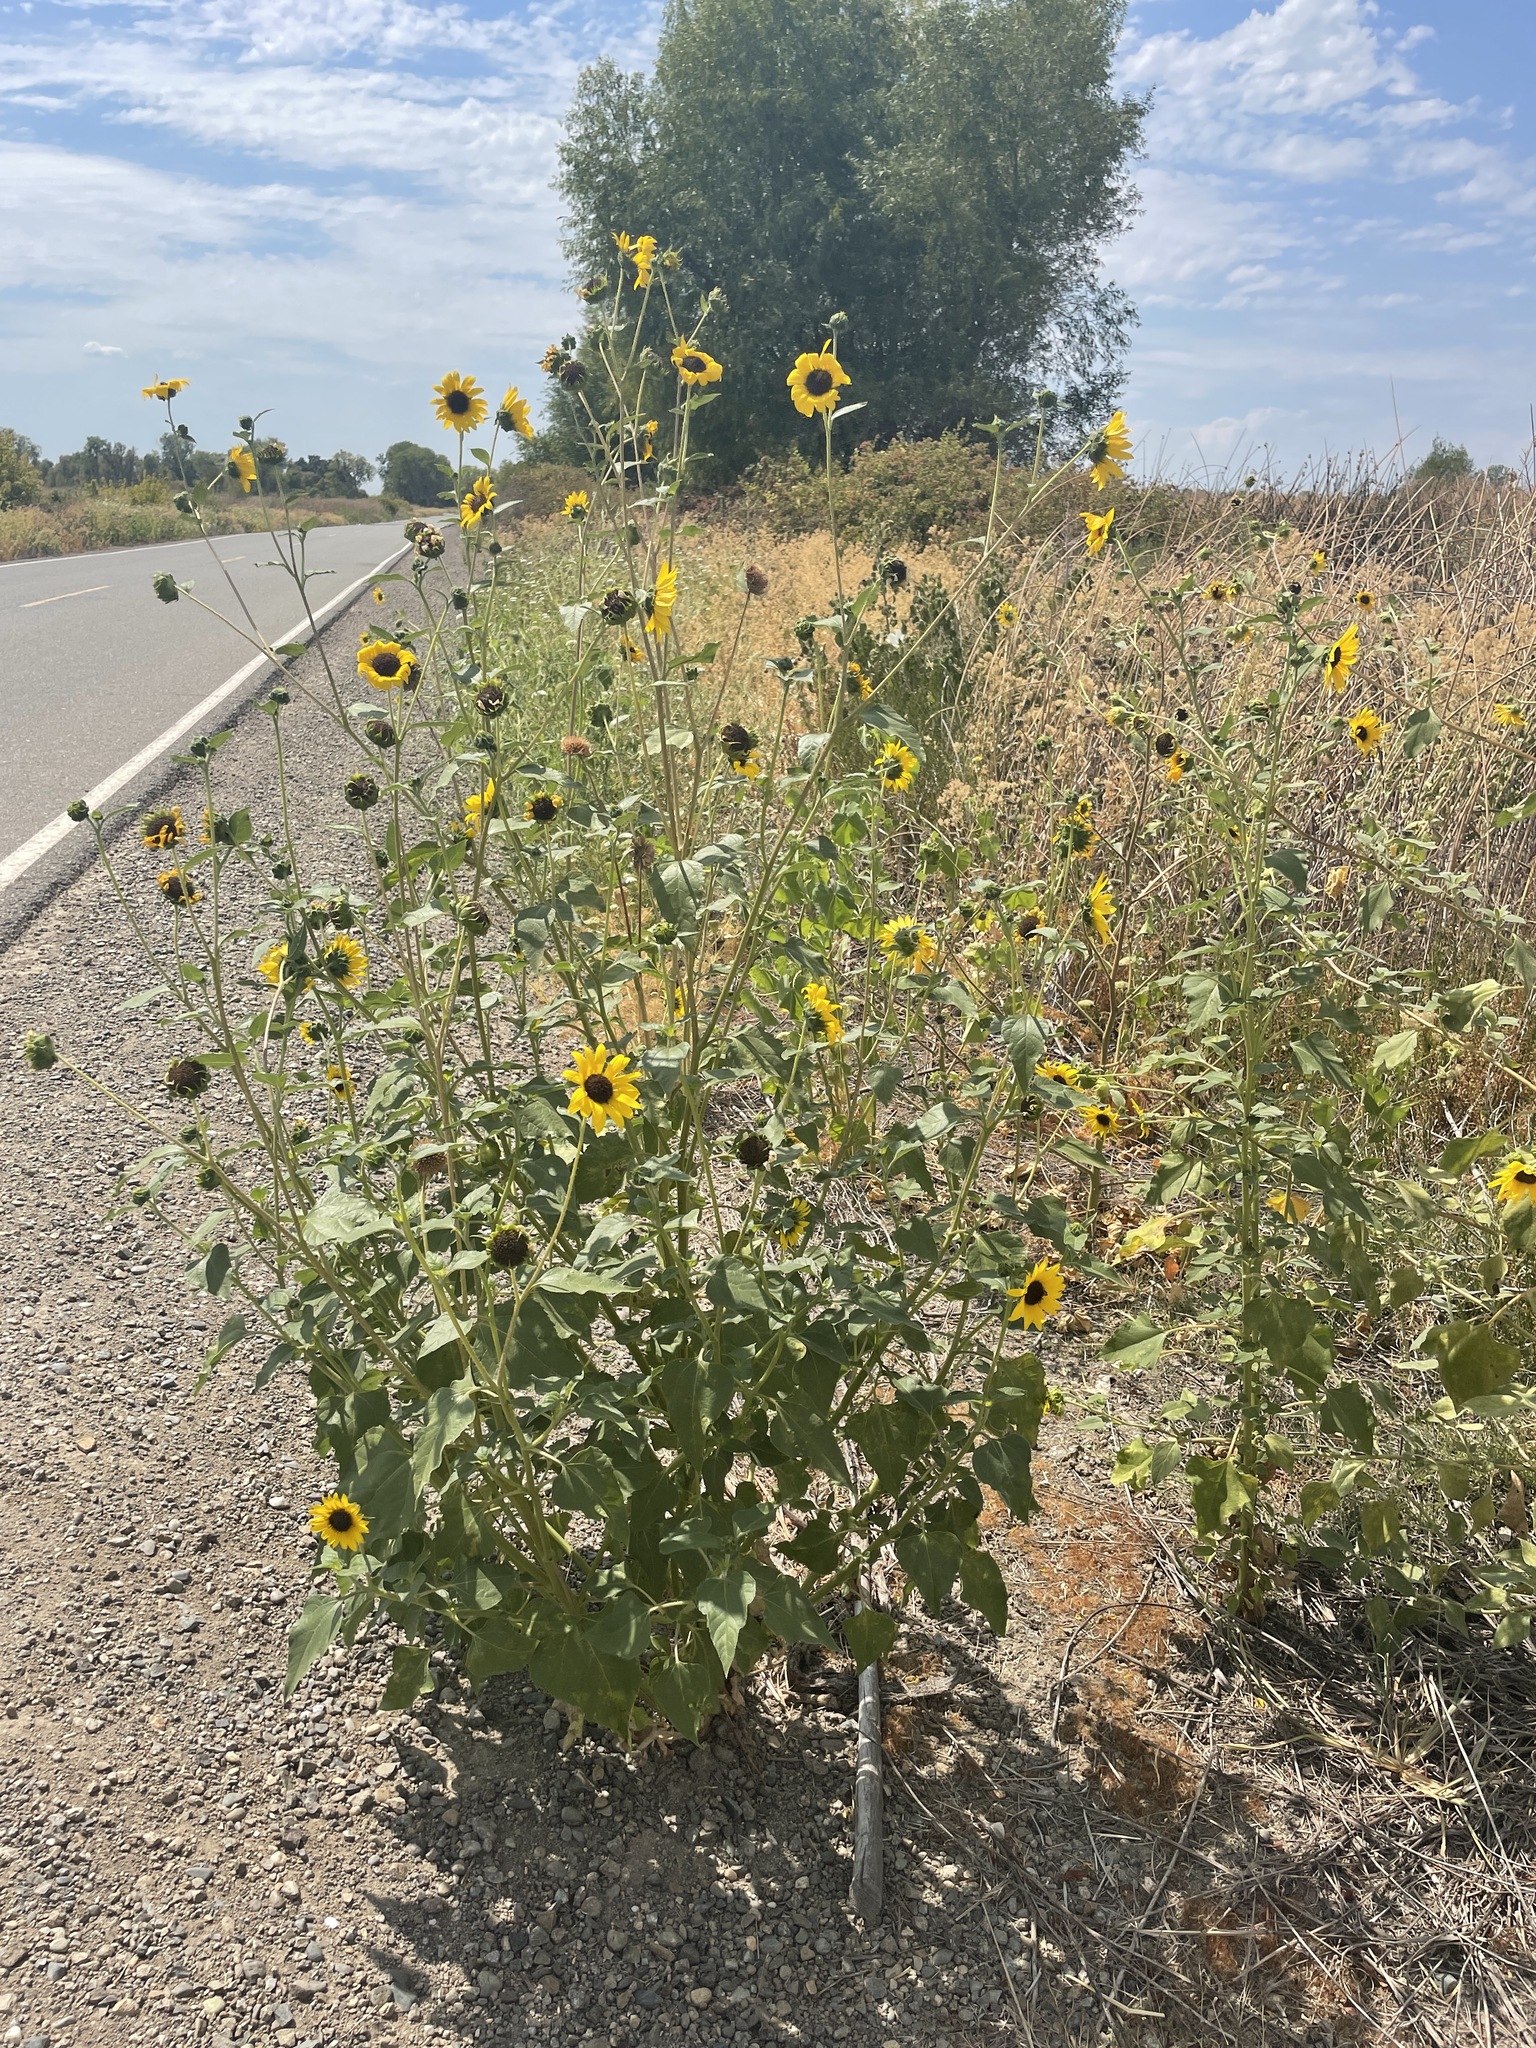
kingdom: Plantae
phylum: Tracheophyta
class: Magnoliopsida
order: Asterales
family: Asteraceae
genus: Helianthus
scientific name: Helianthus annuus
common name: Sunflower
